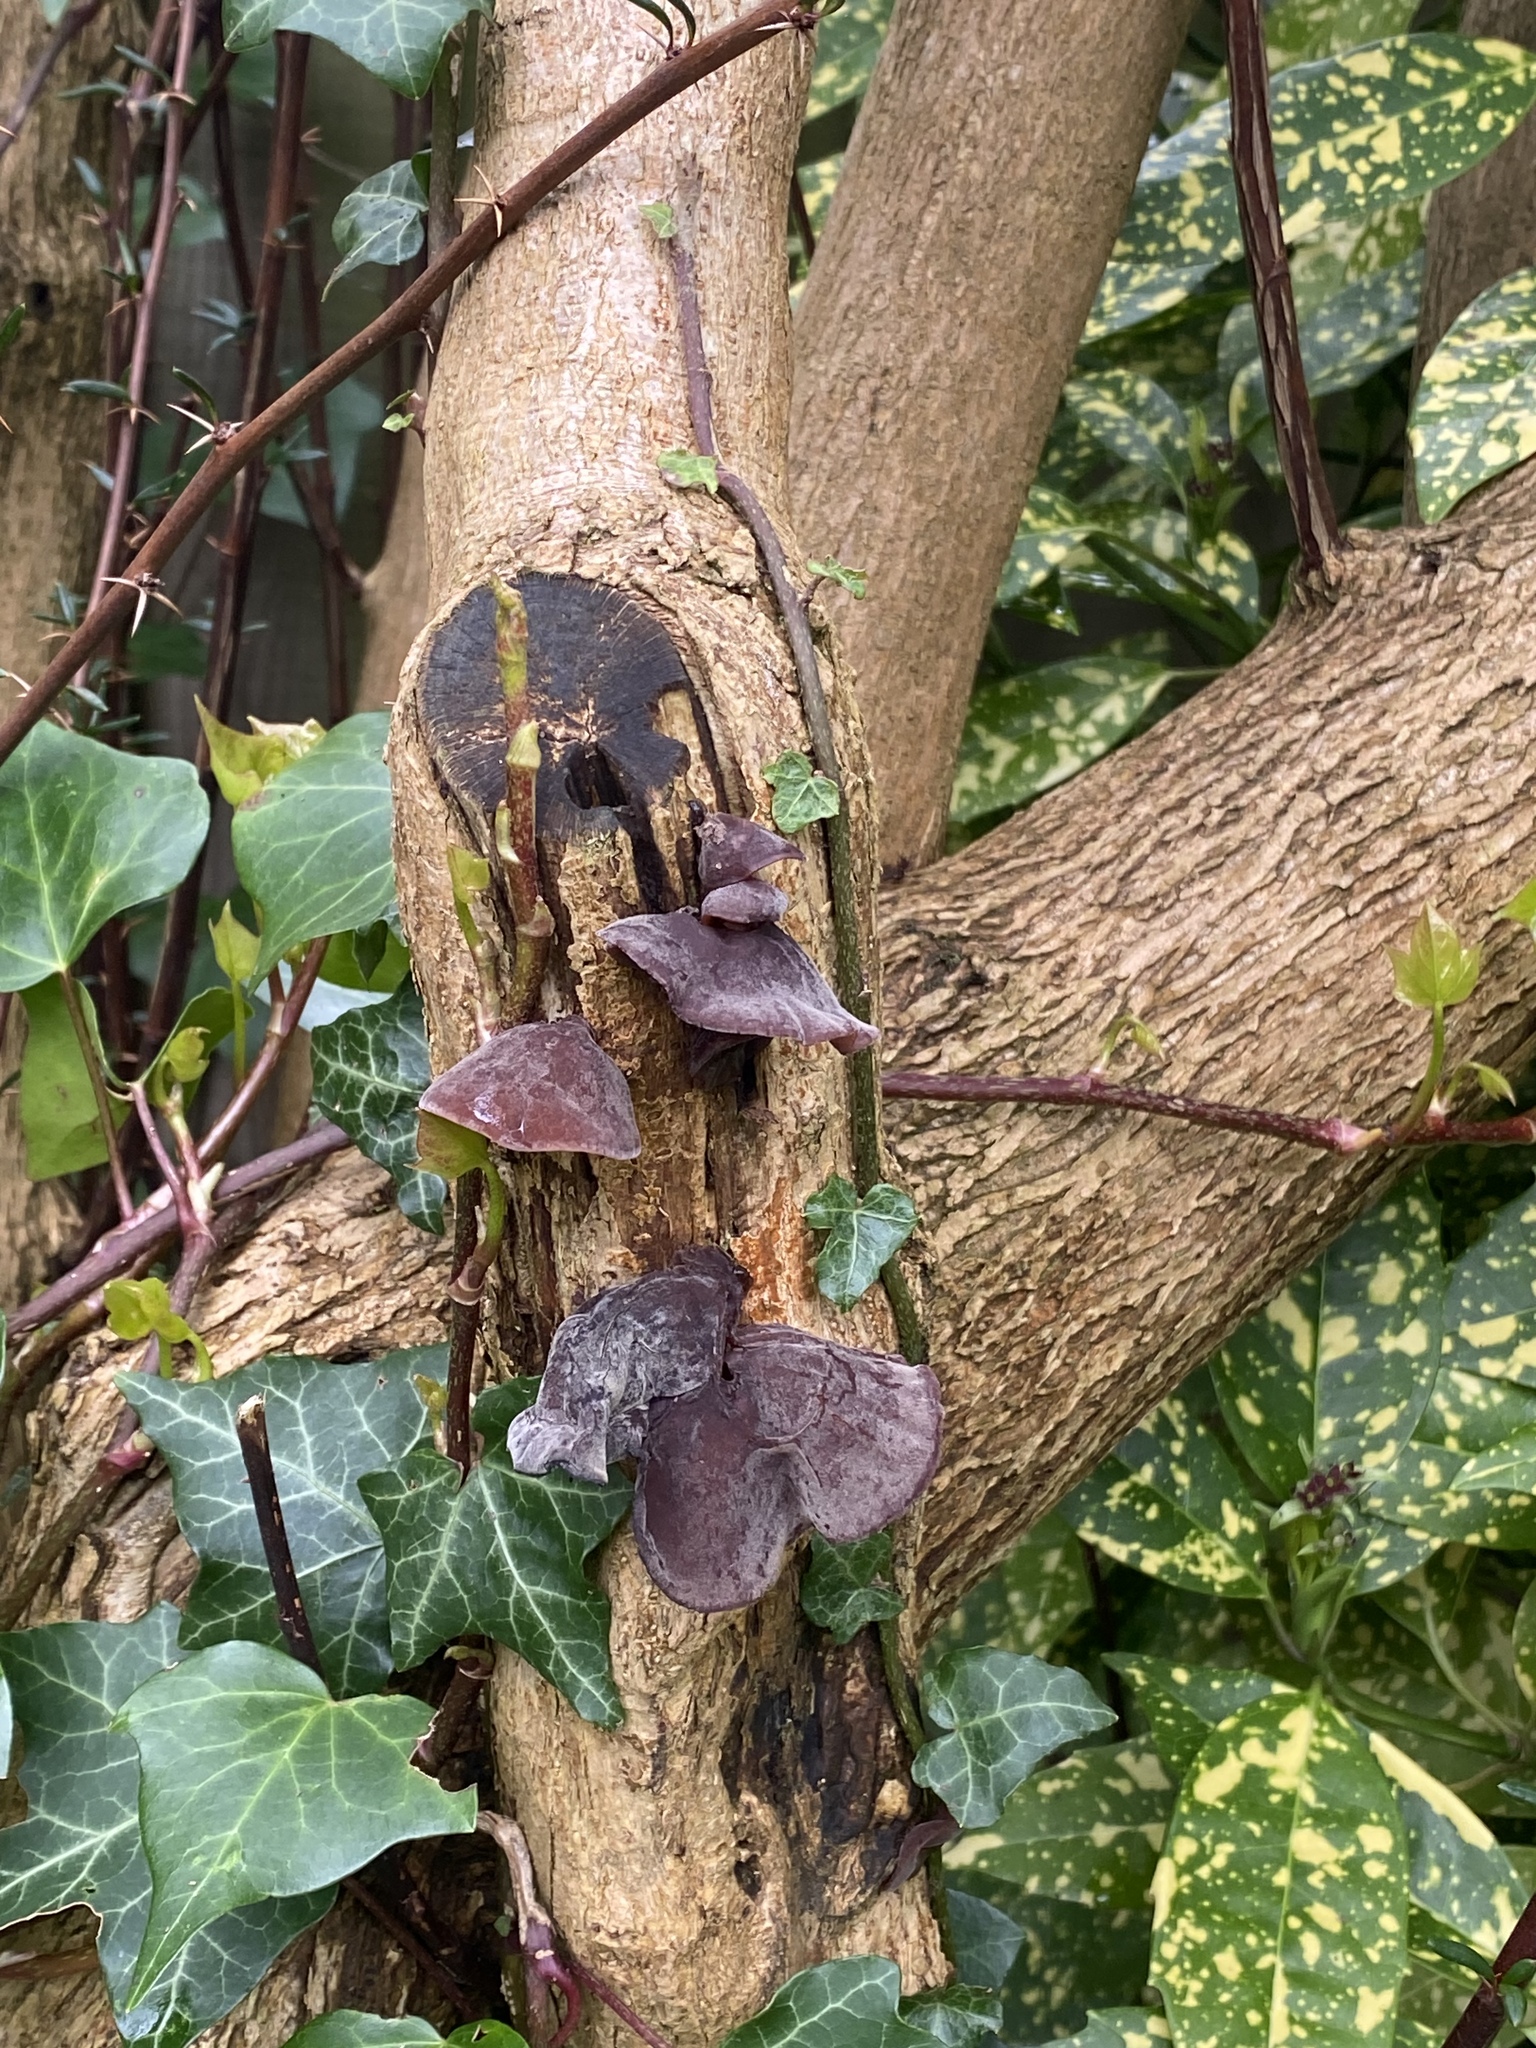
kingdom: Fungi
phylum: Basidiomycota
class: Agaricomycetes
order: Auriculariales
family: Auriculariaceae
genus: Auricularia
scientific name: Auricularia auricula-judae
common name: Jelly ear
